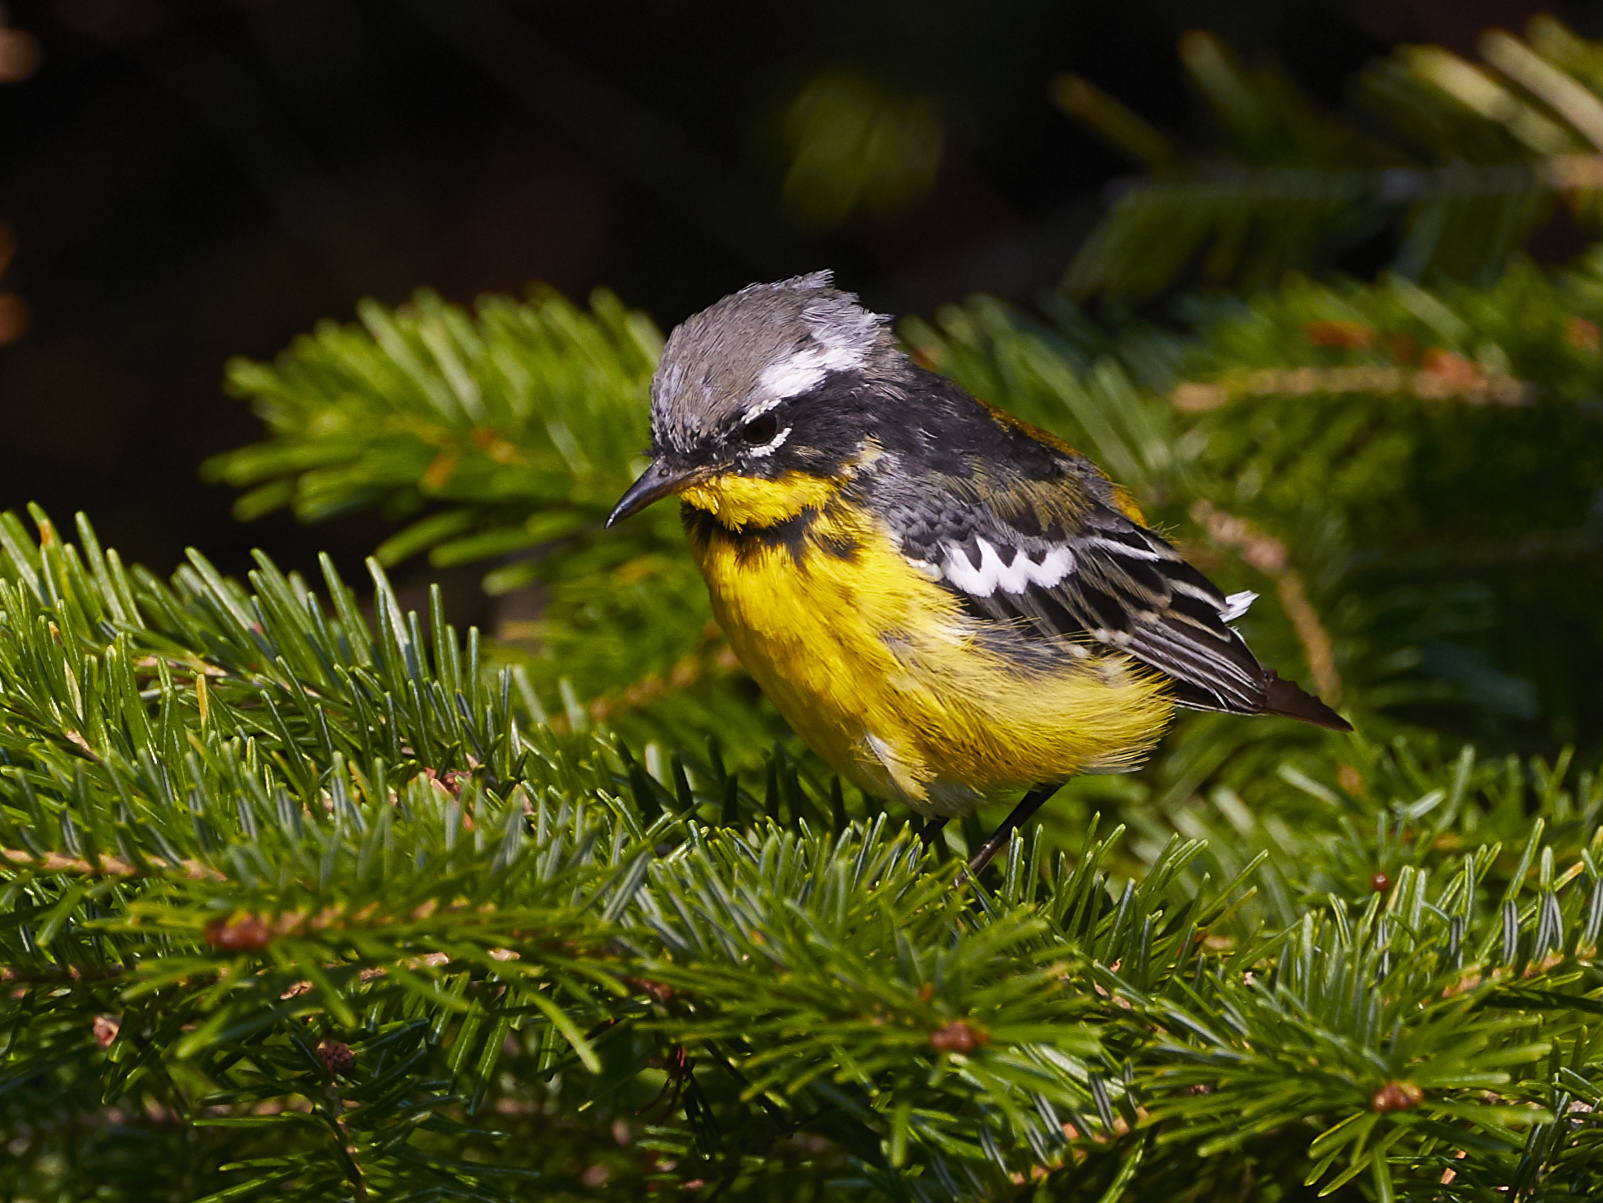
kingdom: Animalia
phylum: Chordata
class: Aves
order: Passeriformes
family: Parulidae
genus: Setophaga
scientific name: Setophaga magnolia
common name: Magnolia warbler
